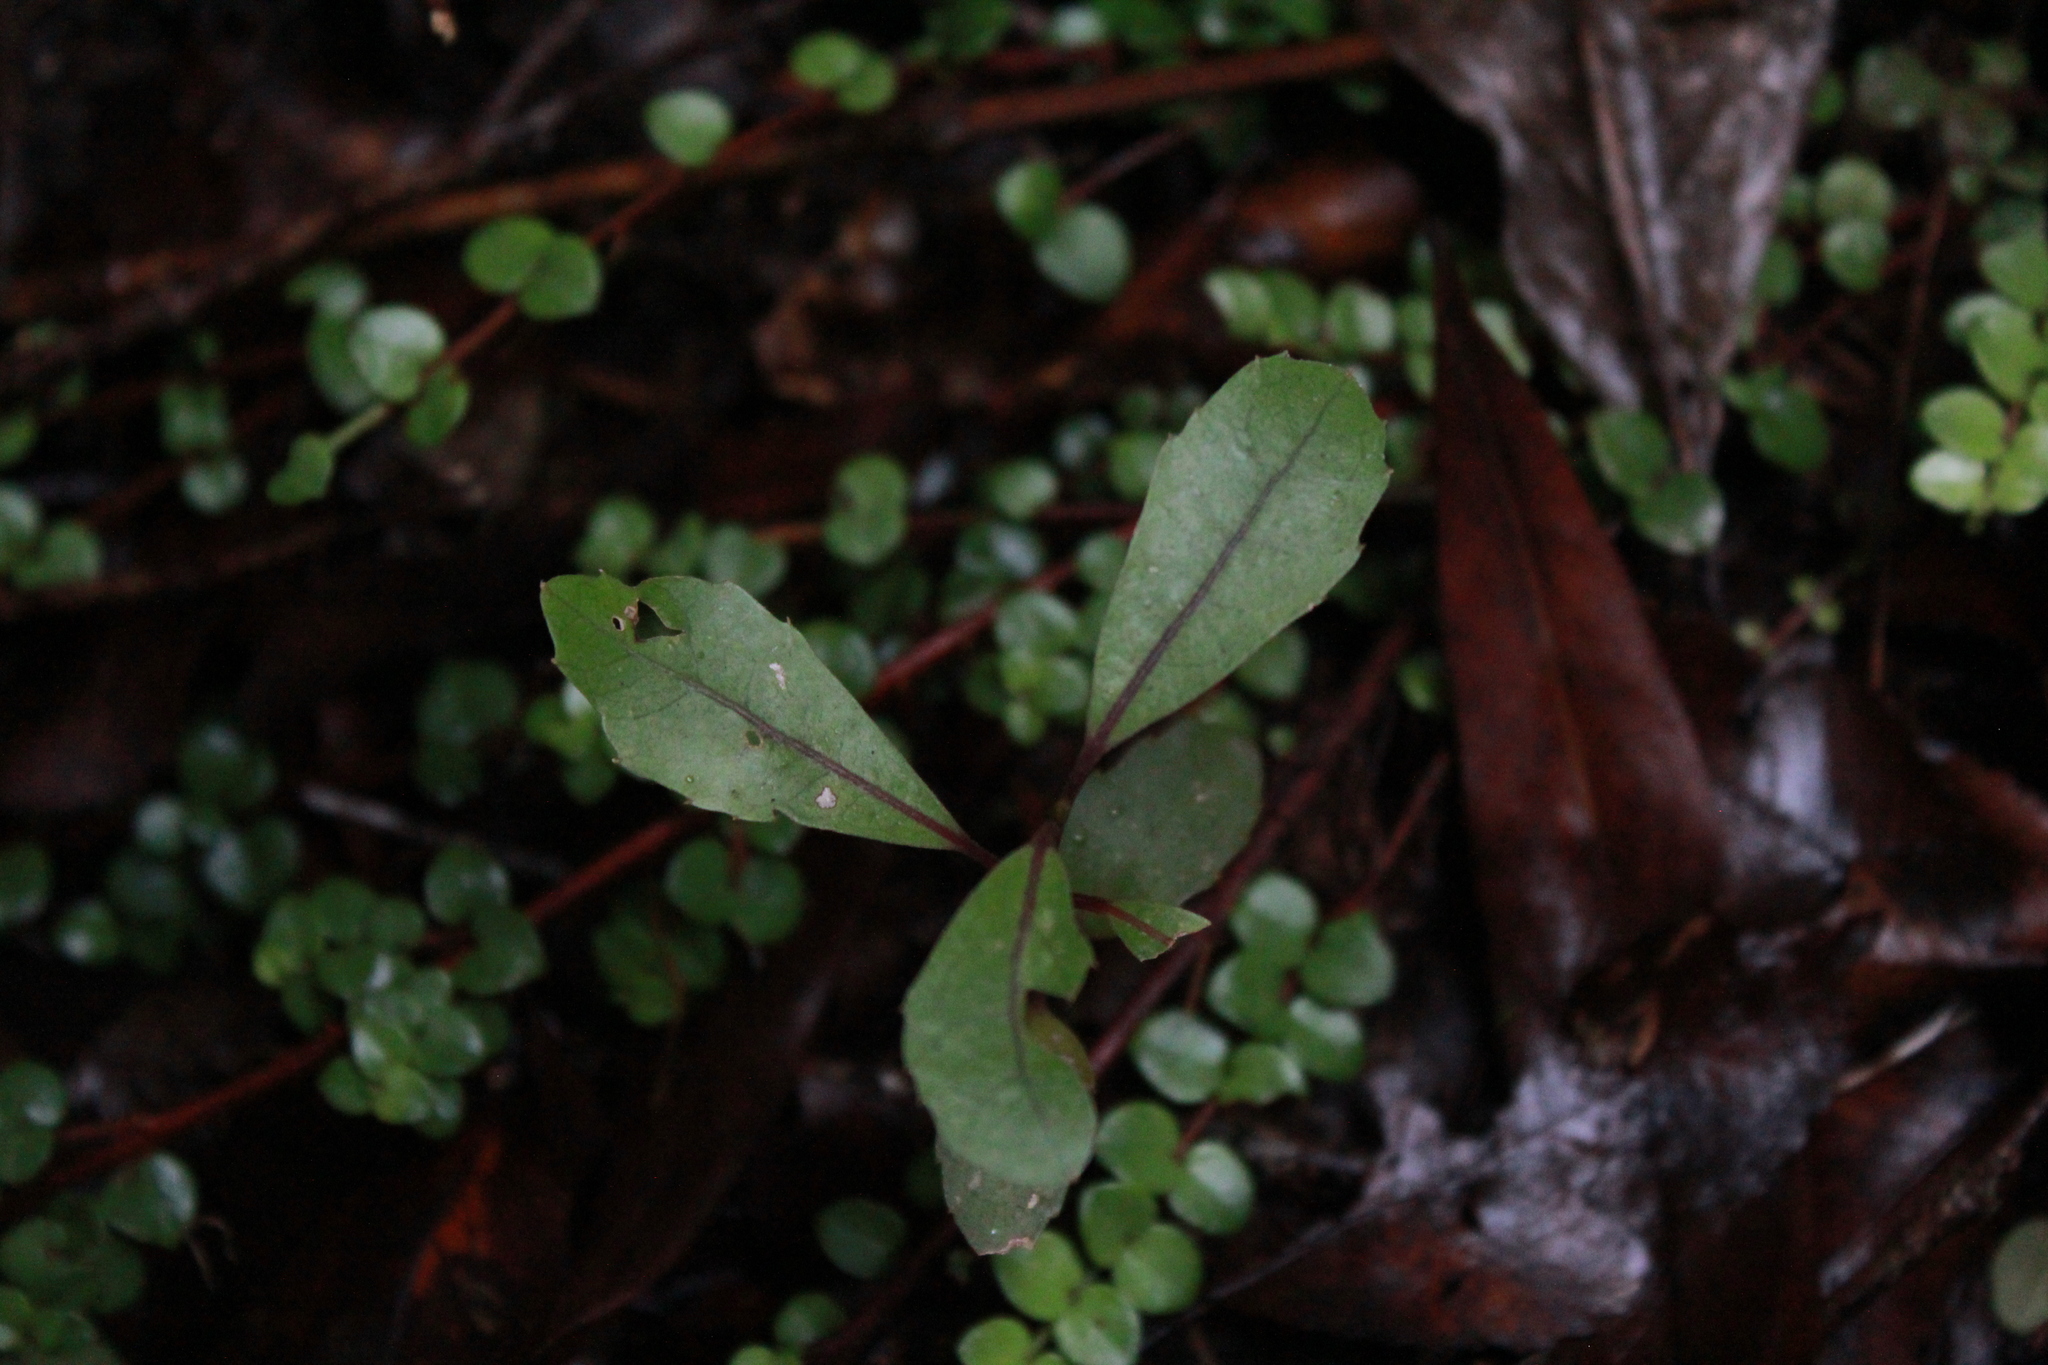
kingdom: Plantae
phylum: Tracheophyta
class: Magnoliopsida
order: Laurales
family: Monimiaceae
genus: Hedycarya
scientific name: Hedycarya arborea
